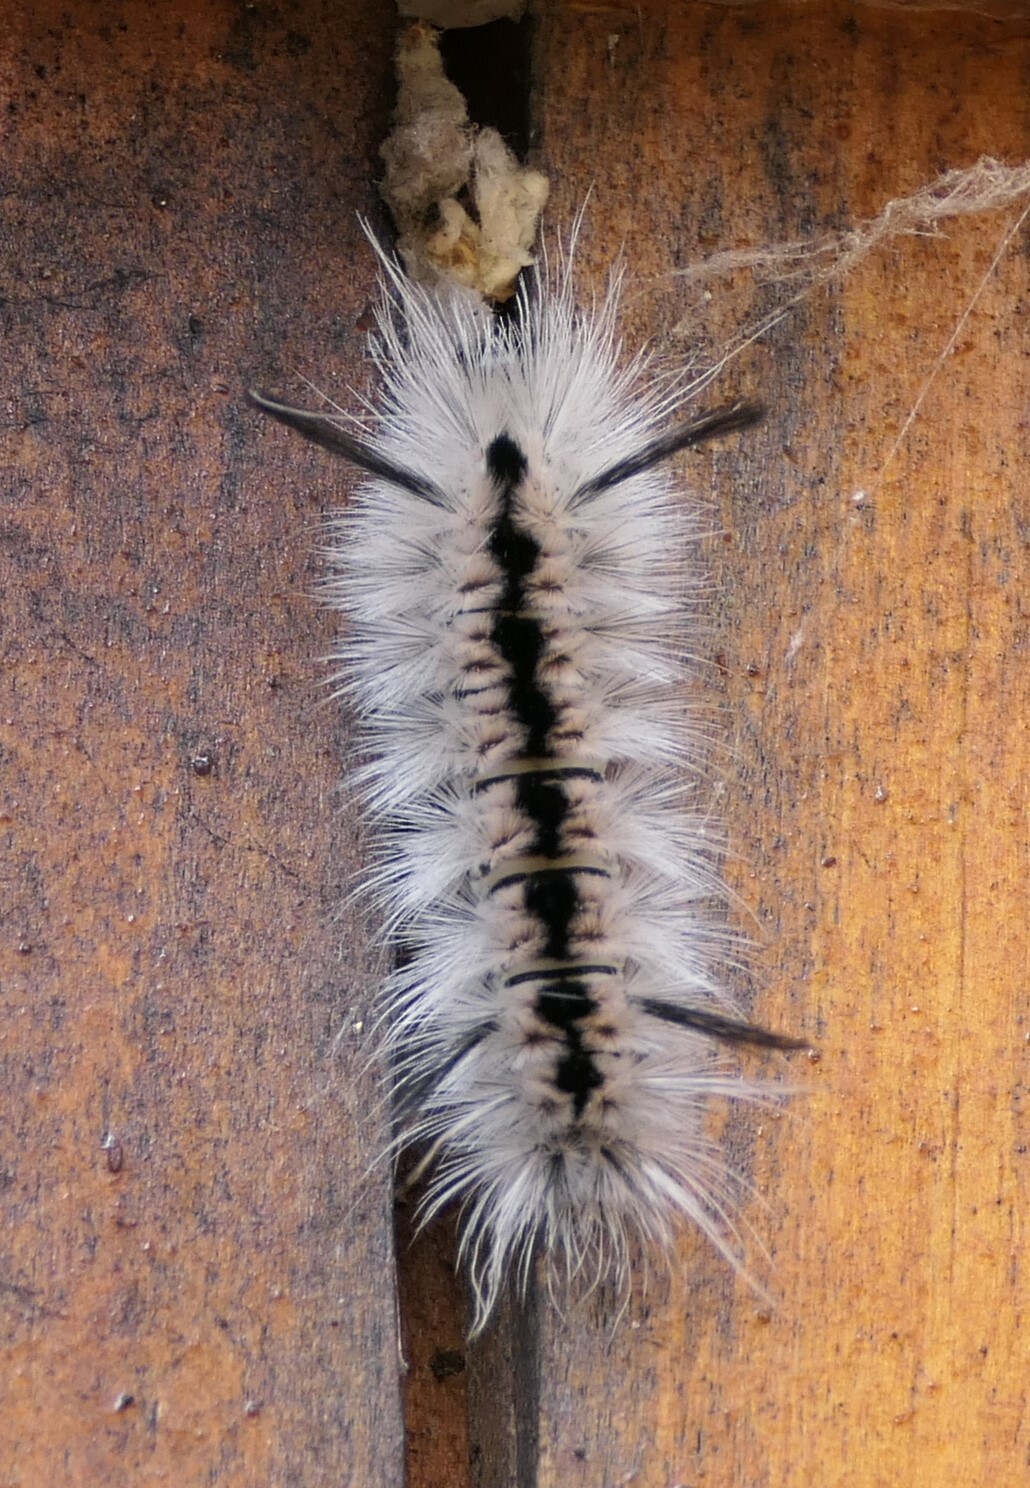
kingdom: Animalia
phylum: Arthropoda
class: Insecta
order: Lepidoptera
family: Erebidae
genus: Lophocampa
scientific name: Lophocampa caryae
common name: Hickory tussock moth
